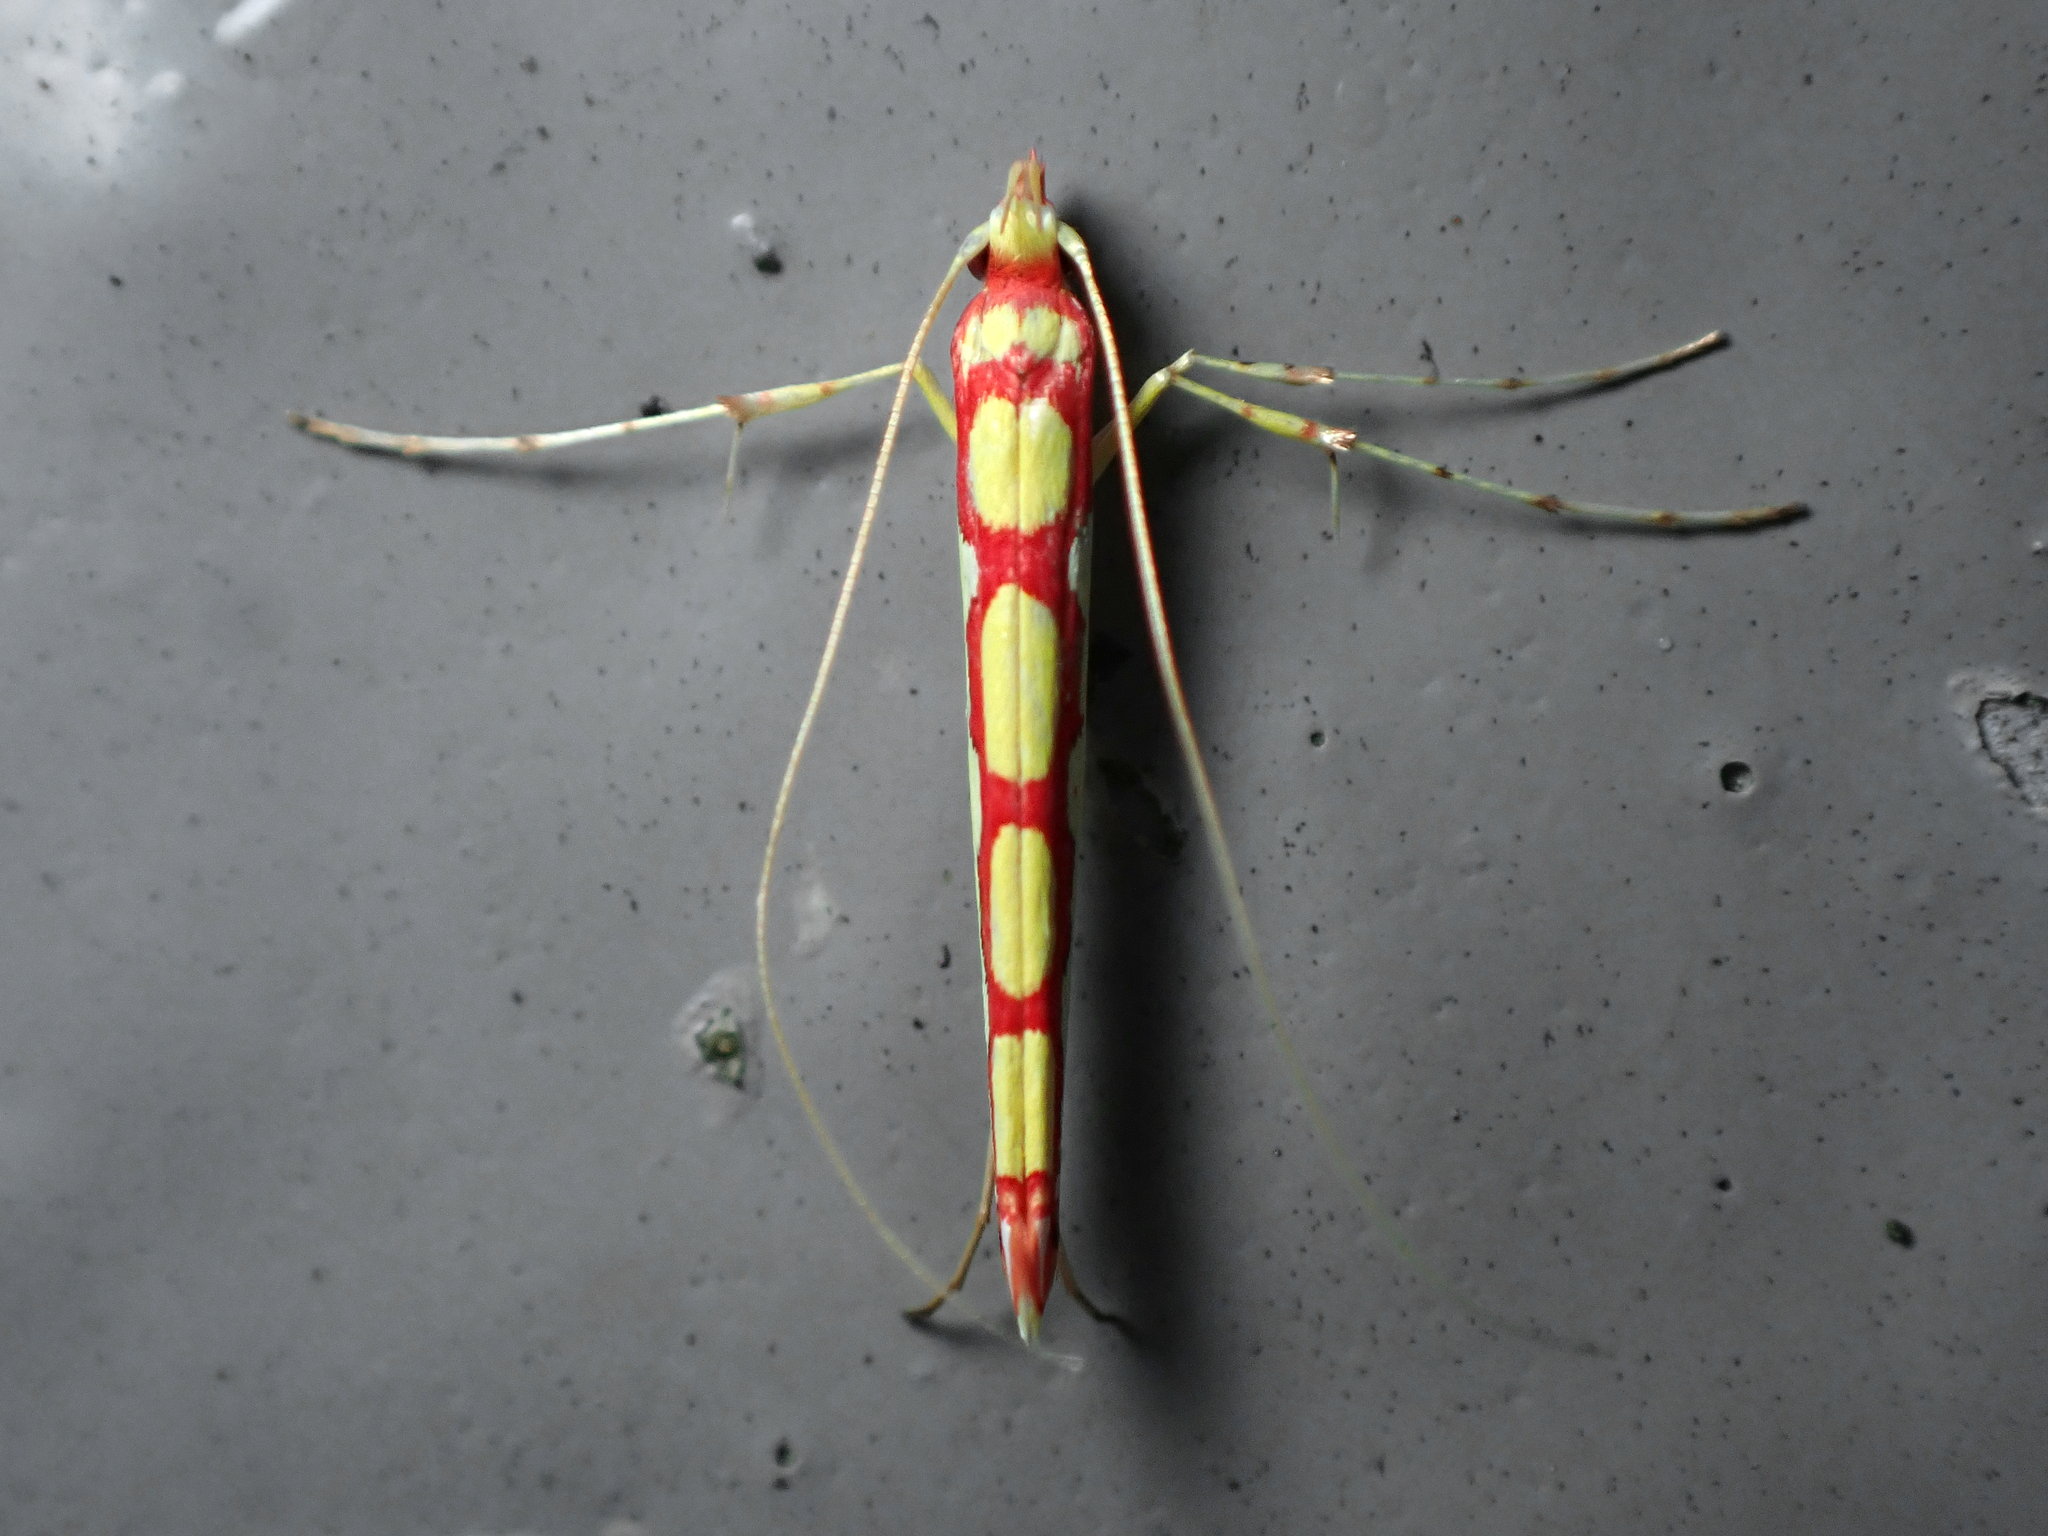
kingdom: Animalia
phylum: Arthropoda
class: Insecta
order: Lepidoptera
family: Gracillariidae
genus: Macarostola
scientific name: Macarostola miniella
